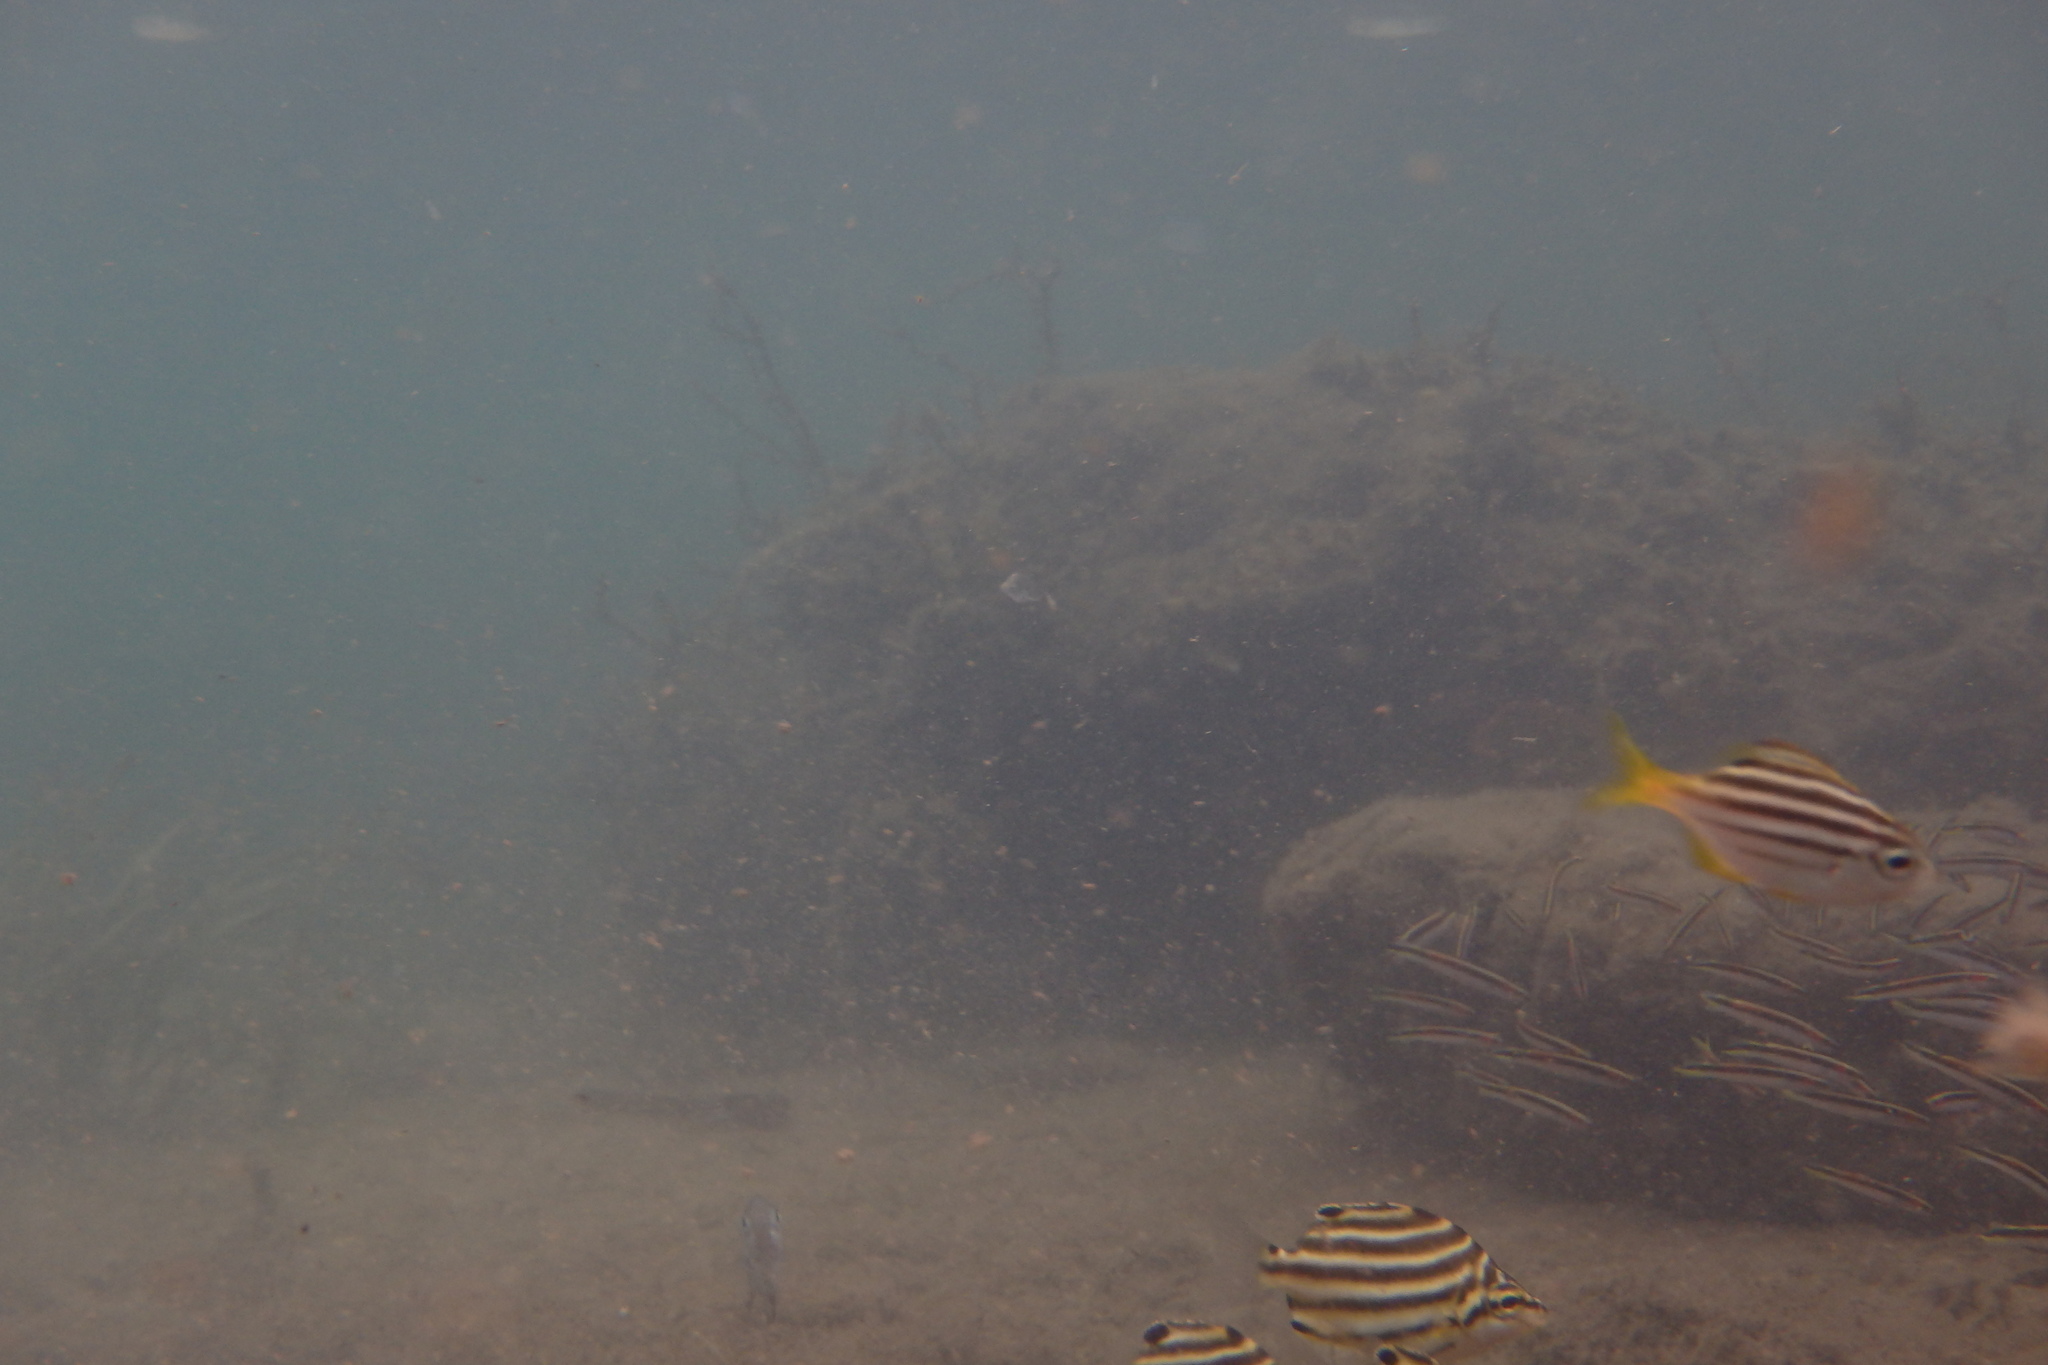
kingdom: Animalia
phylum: Chordata
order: Perciformes
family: Kyphosidae
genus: Atypichthys
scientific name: Atypichthys strigatus
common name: Australian mado
